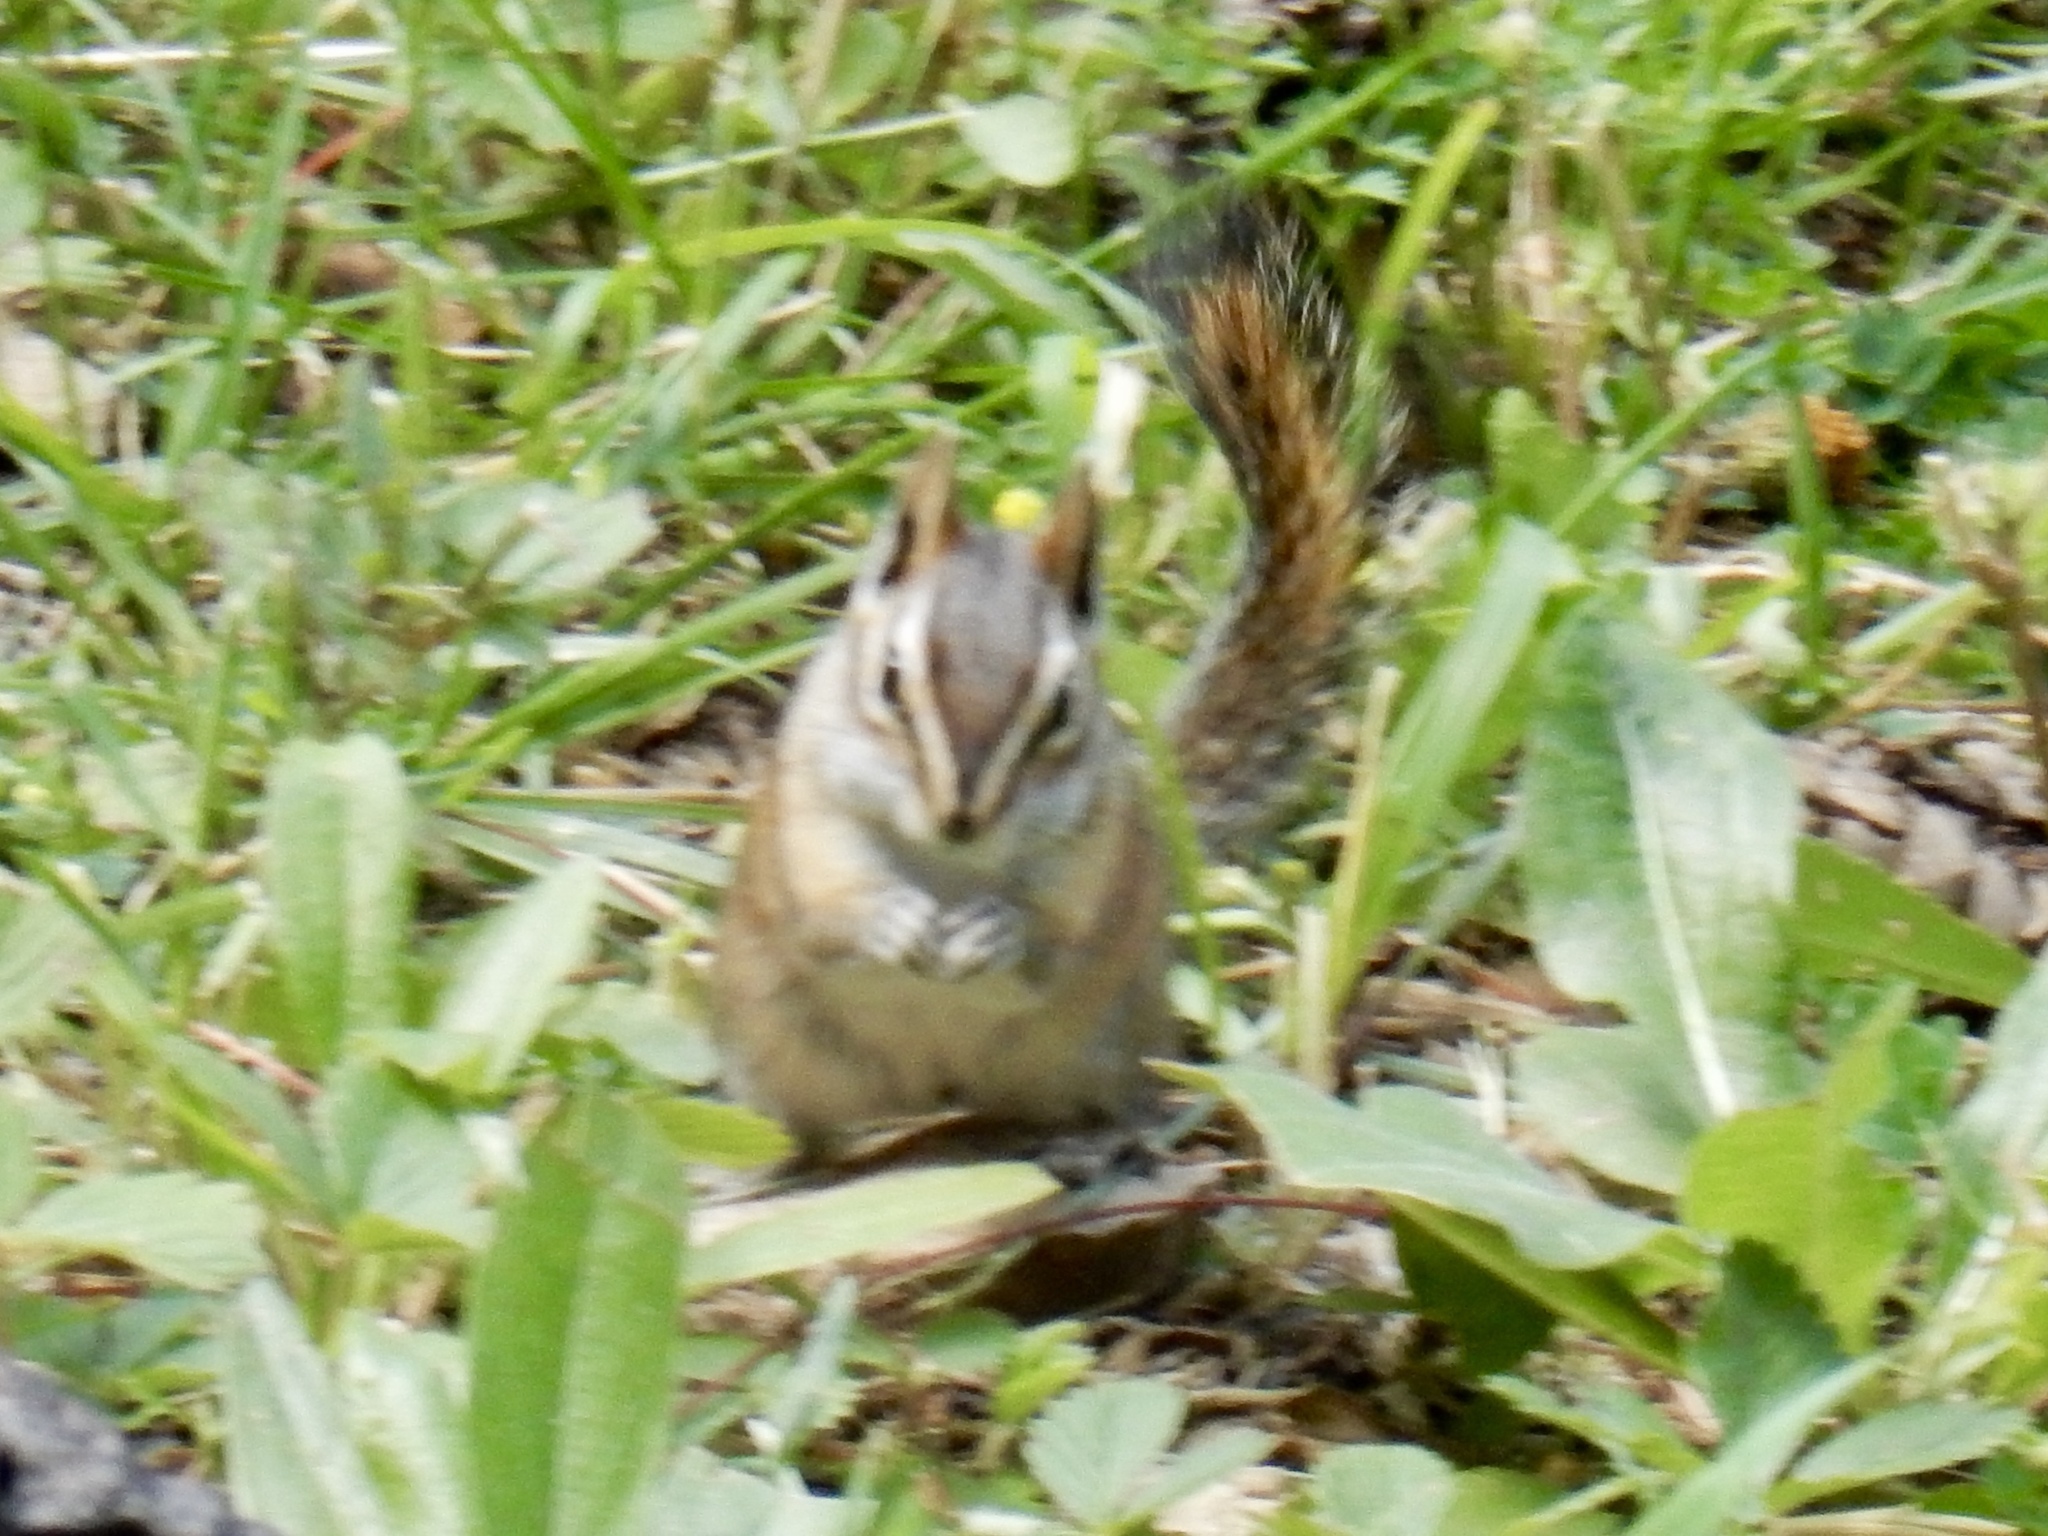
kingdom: Animalia
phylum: Chordata
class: Mammalia
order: Rodentia
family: Sciuridae
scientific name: Sciuridae
